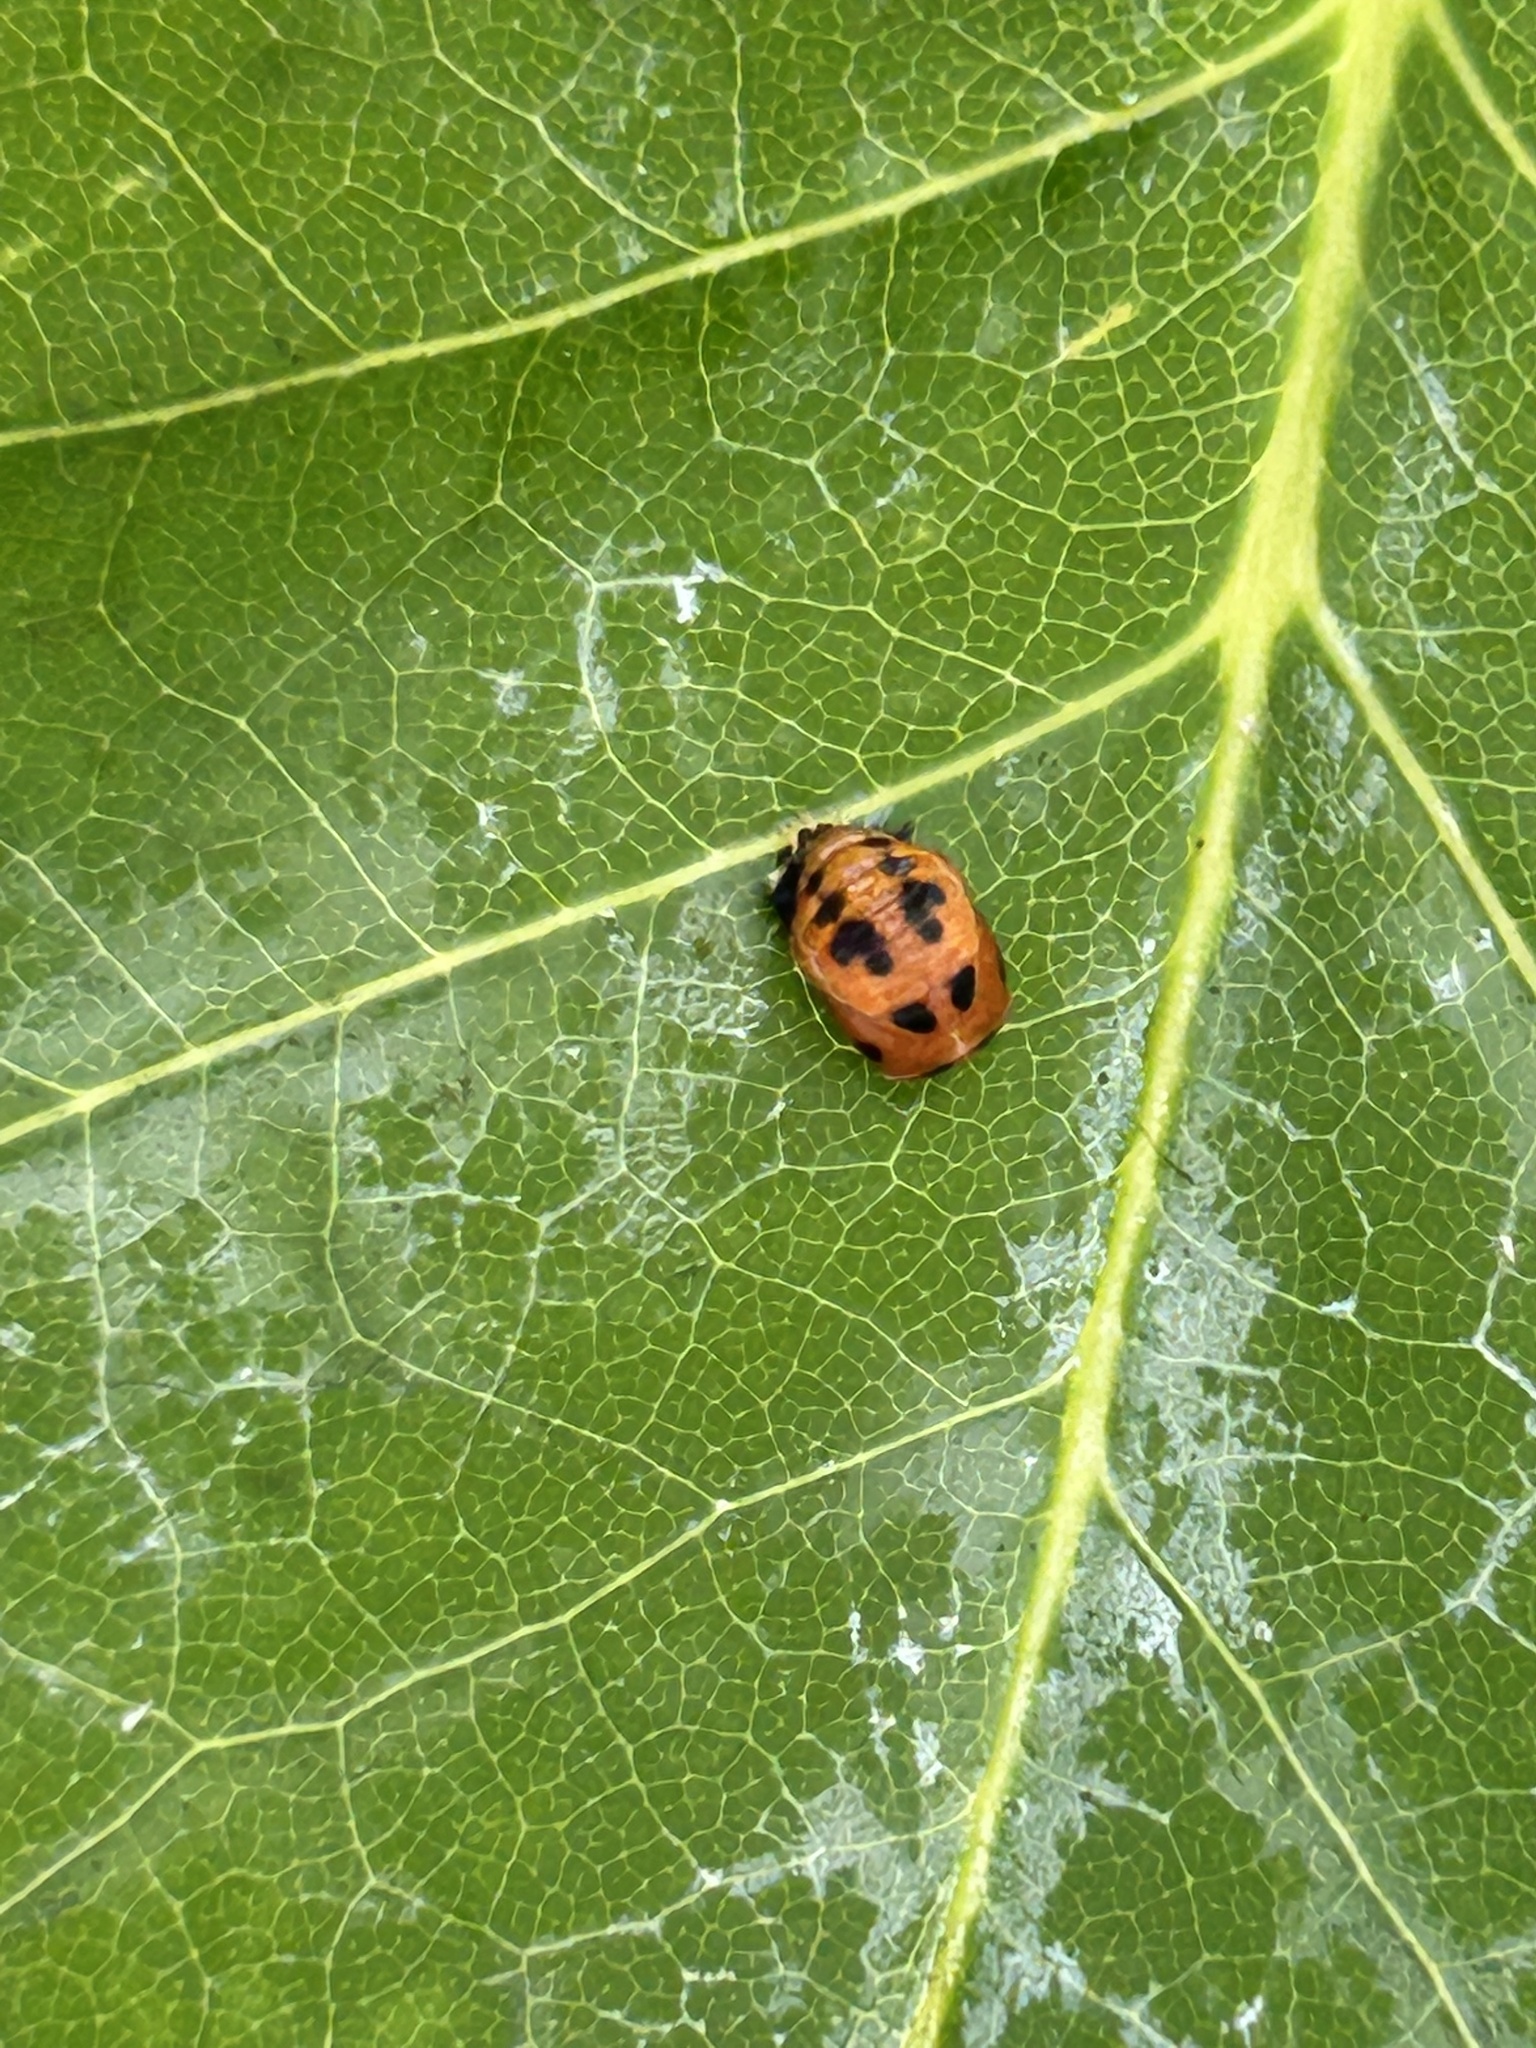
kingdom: Animalia
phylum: Arthropoda
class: Insecta
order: Coleoptera
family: Coccinellidae
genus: Harmonia
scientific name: Harmonia axyridis
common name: Harlequin ladybird
